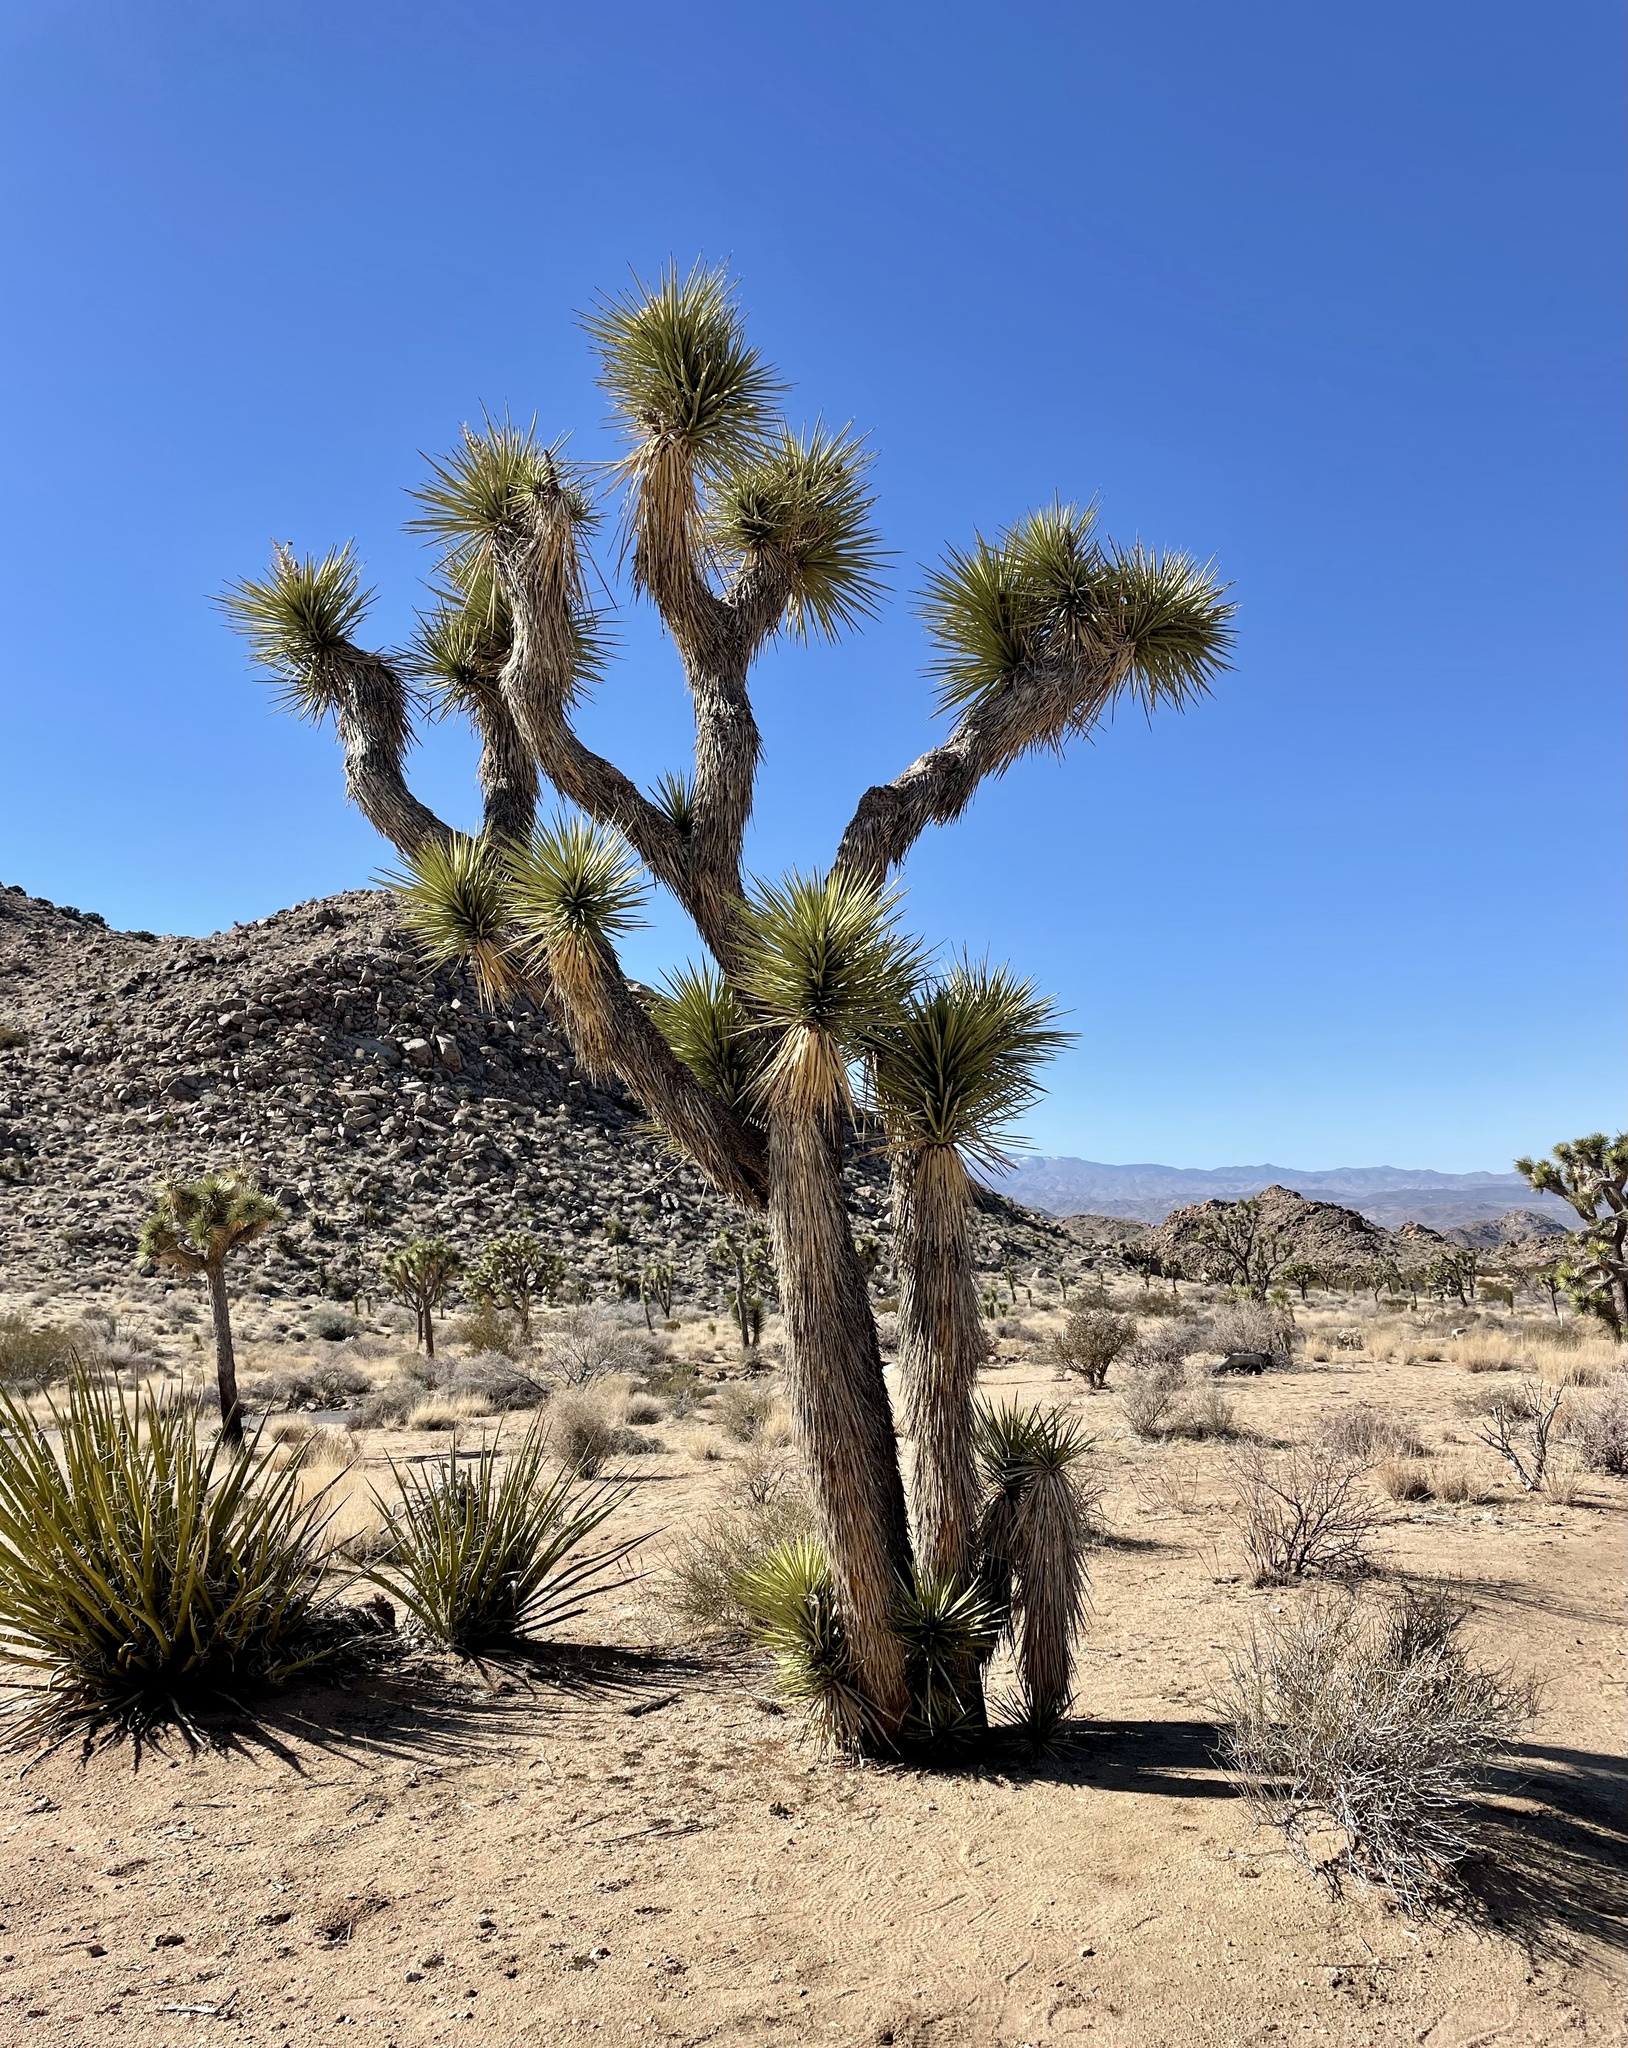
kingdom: Plantae
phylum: Tracheophyta
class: Liliopsida
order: Asparagales
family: Asparagaceae
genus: Yucca
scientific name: Yucca brevifolia
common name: Joshua tree
